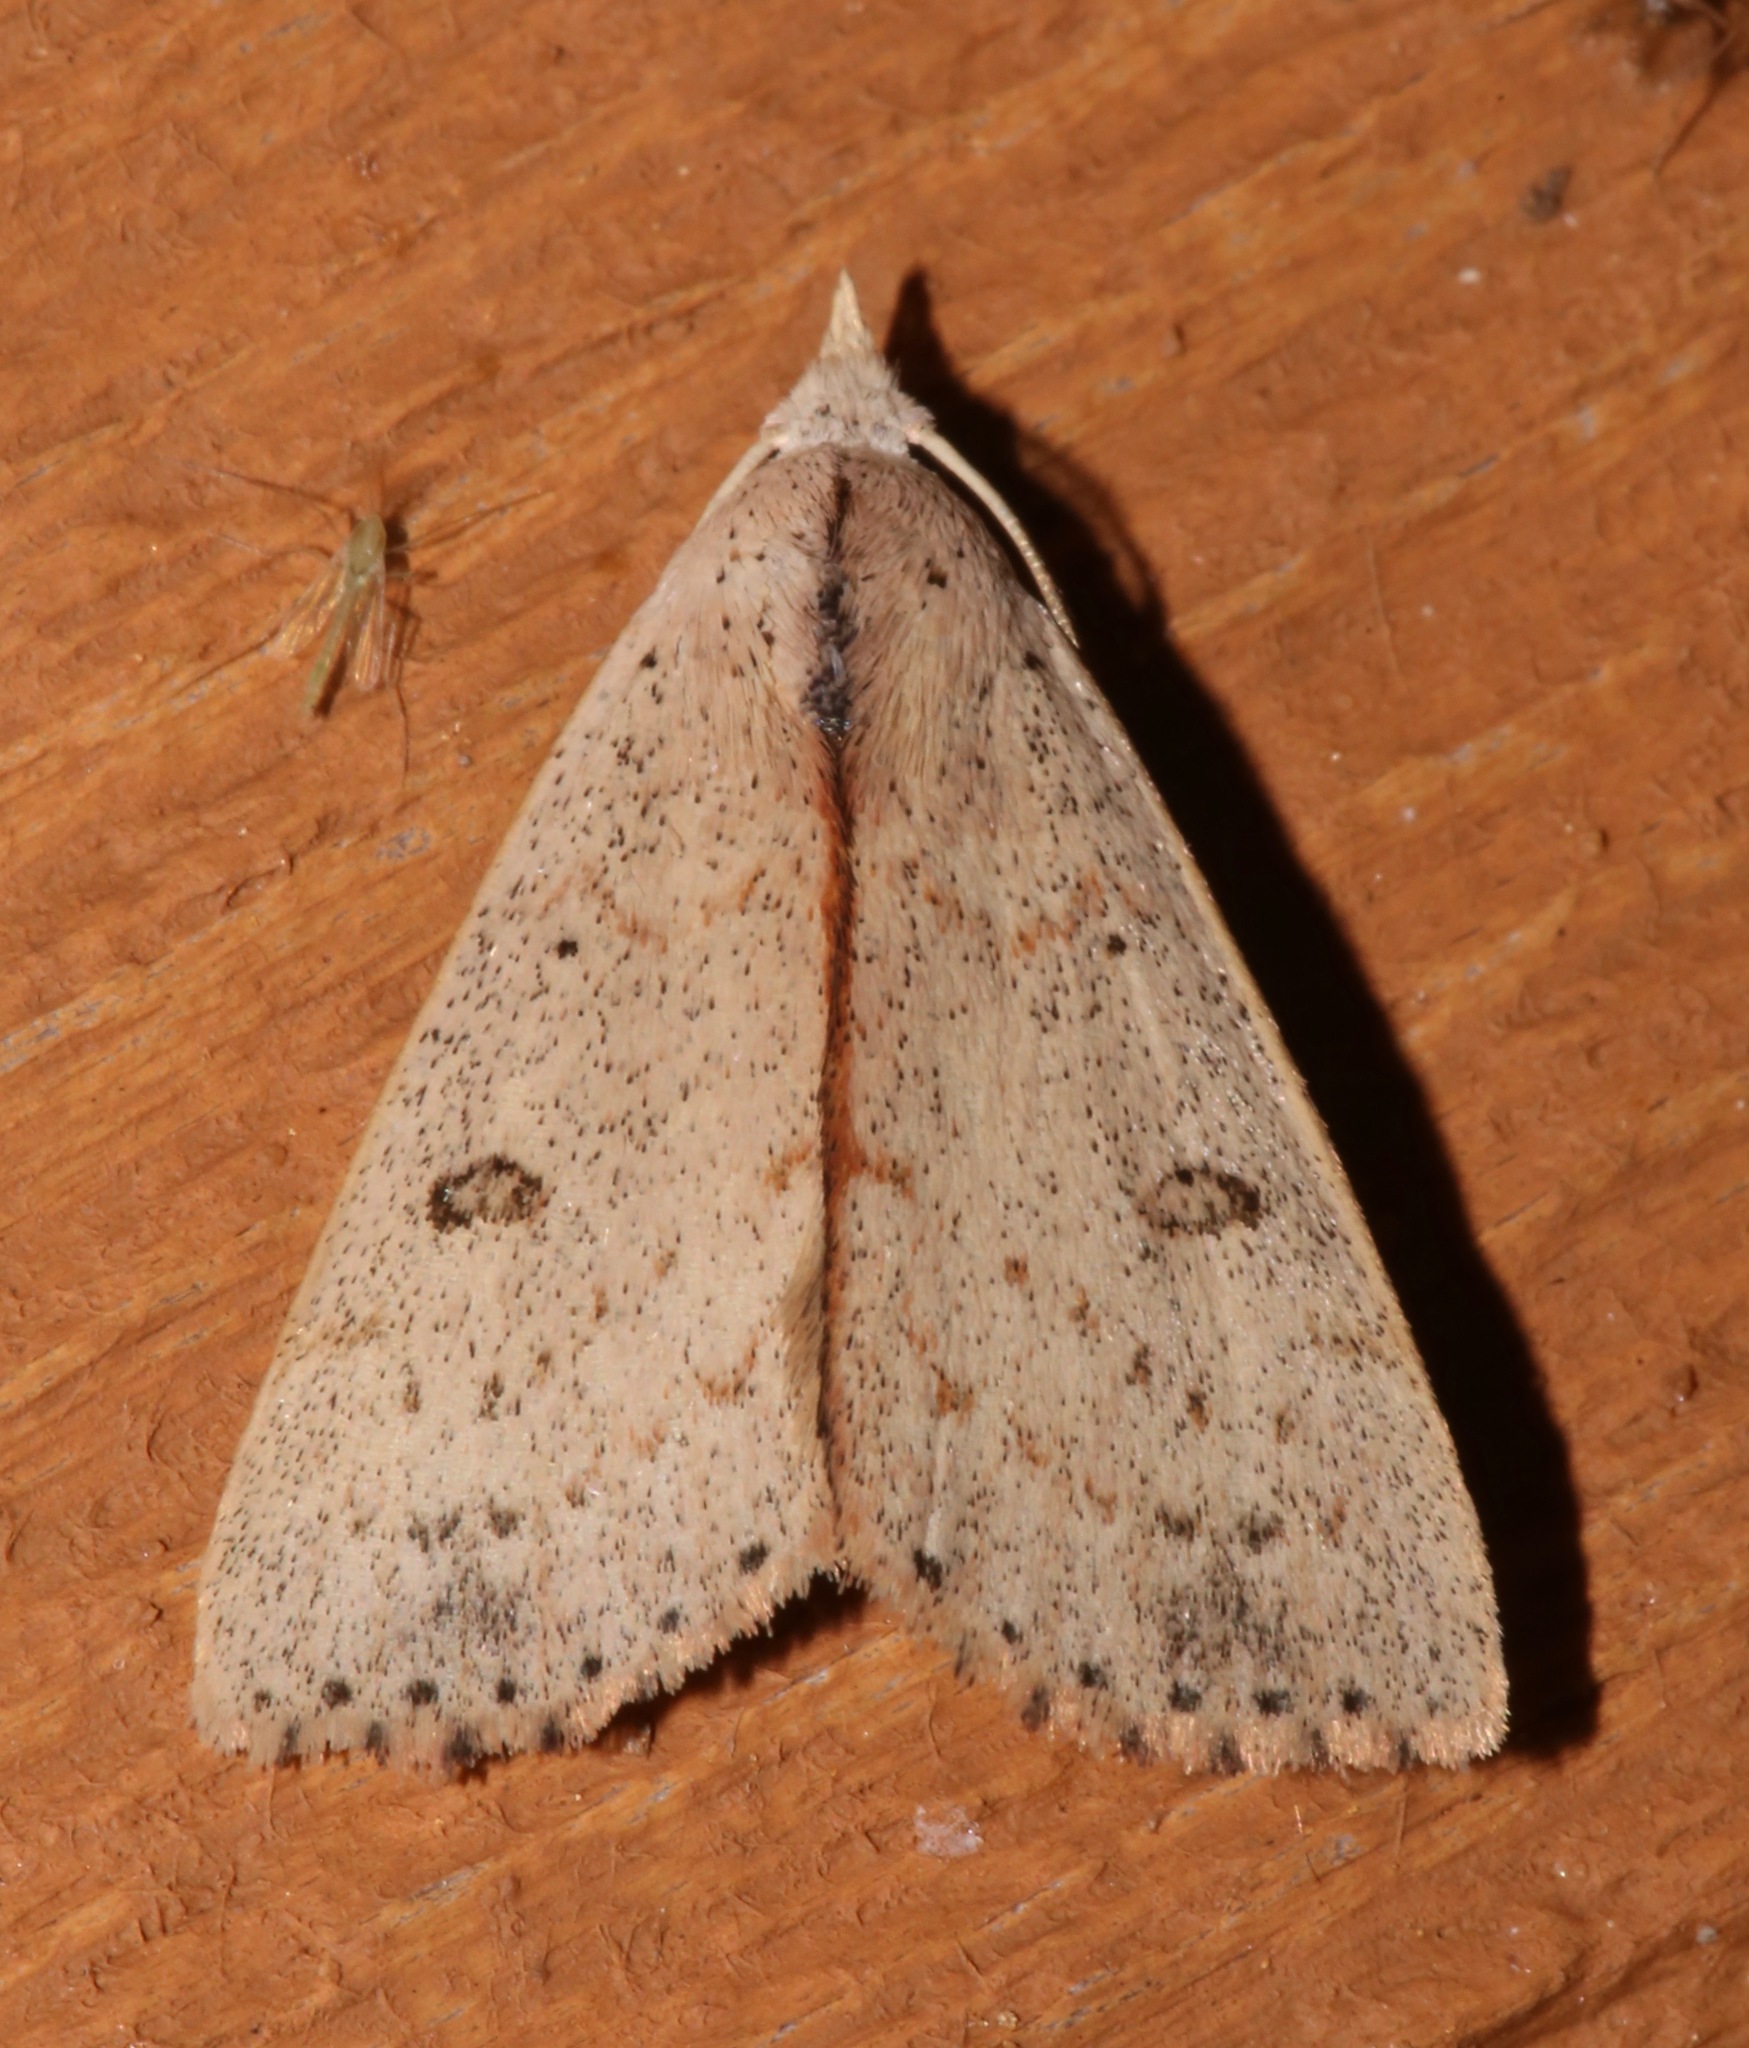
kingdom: Animalia
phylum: Arthropoda
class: Insecta
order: Lepidoptera
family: Erebidae
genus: Scolecocampa
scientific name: Scolecocampa liburna
